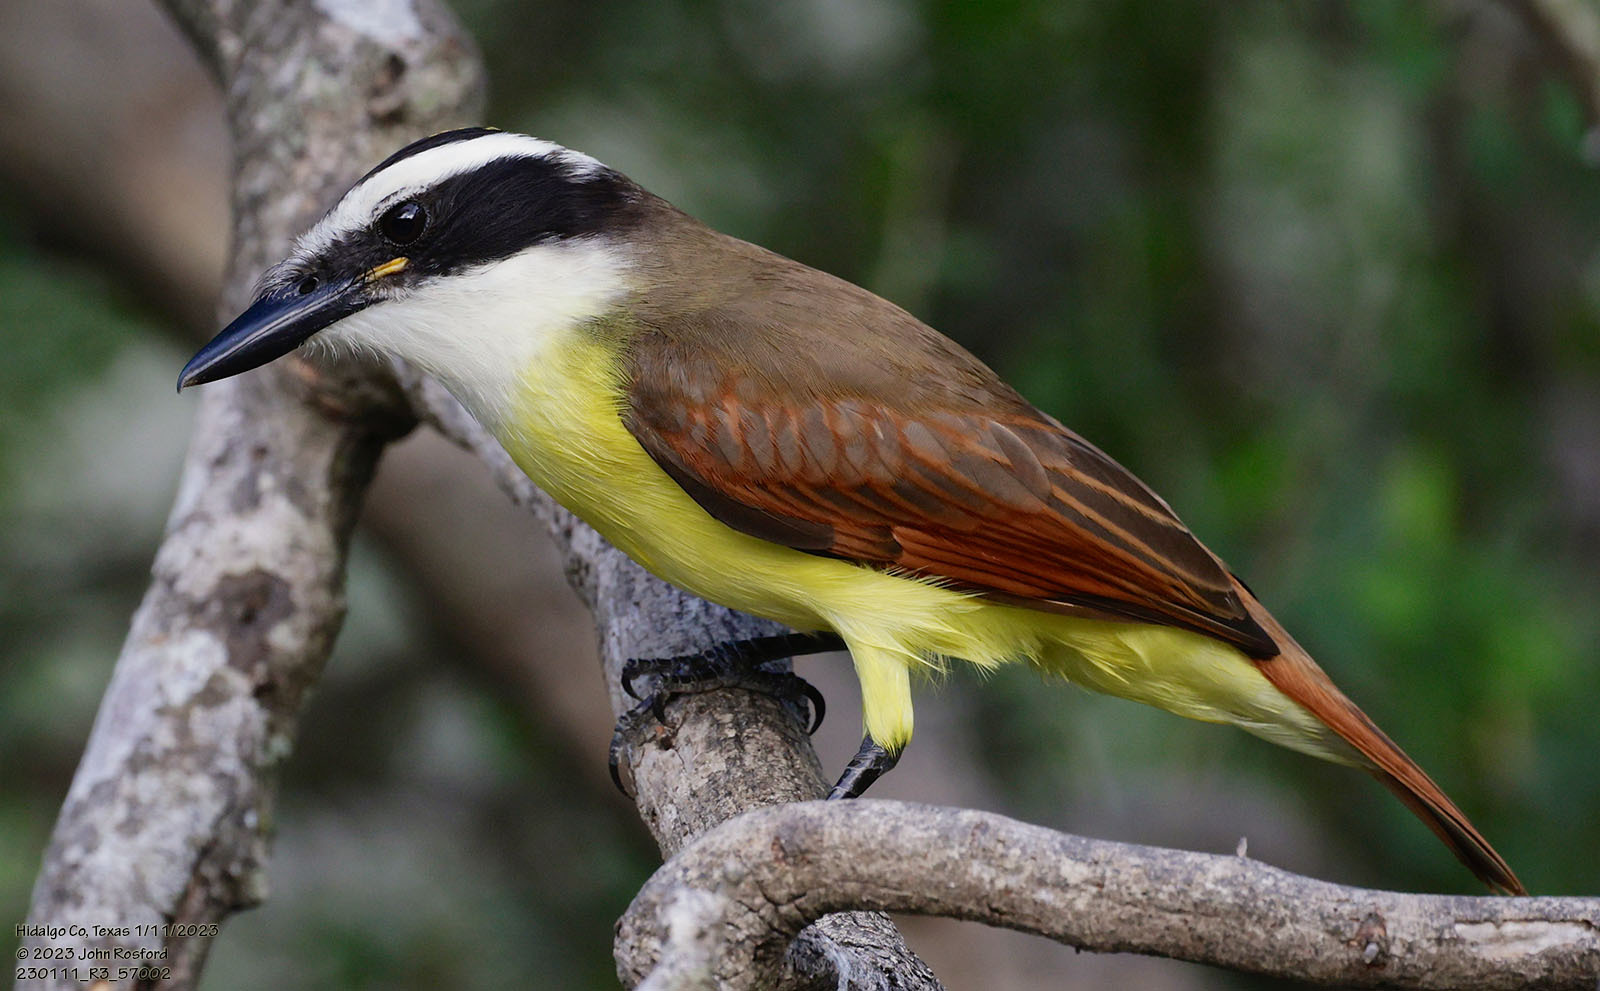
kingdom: Animalia
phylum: Chordata
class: Aves
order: Passeriformes
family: Tyrannidae
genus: Pitangus
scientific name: Pitangus sulphuratus
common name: Great kiskadee
